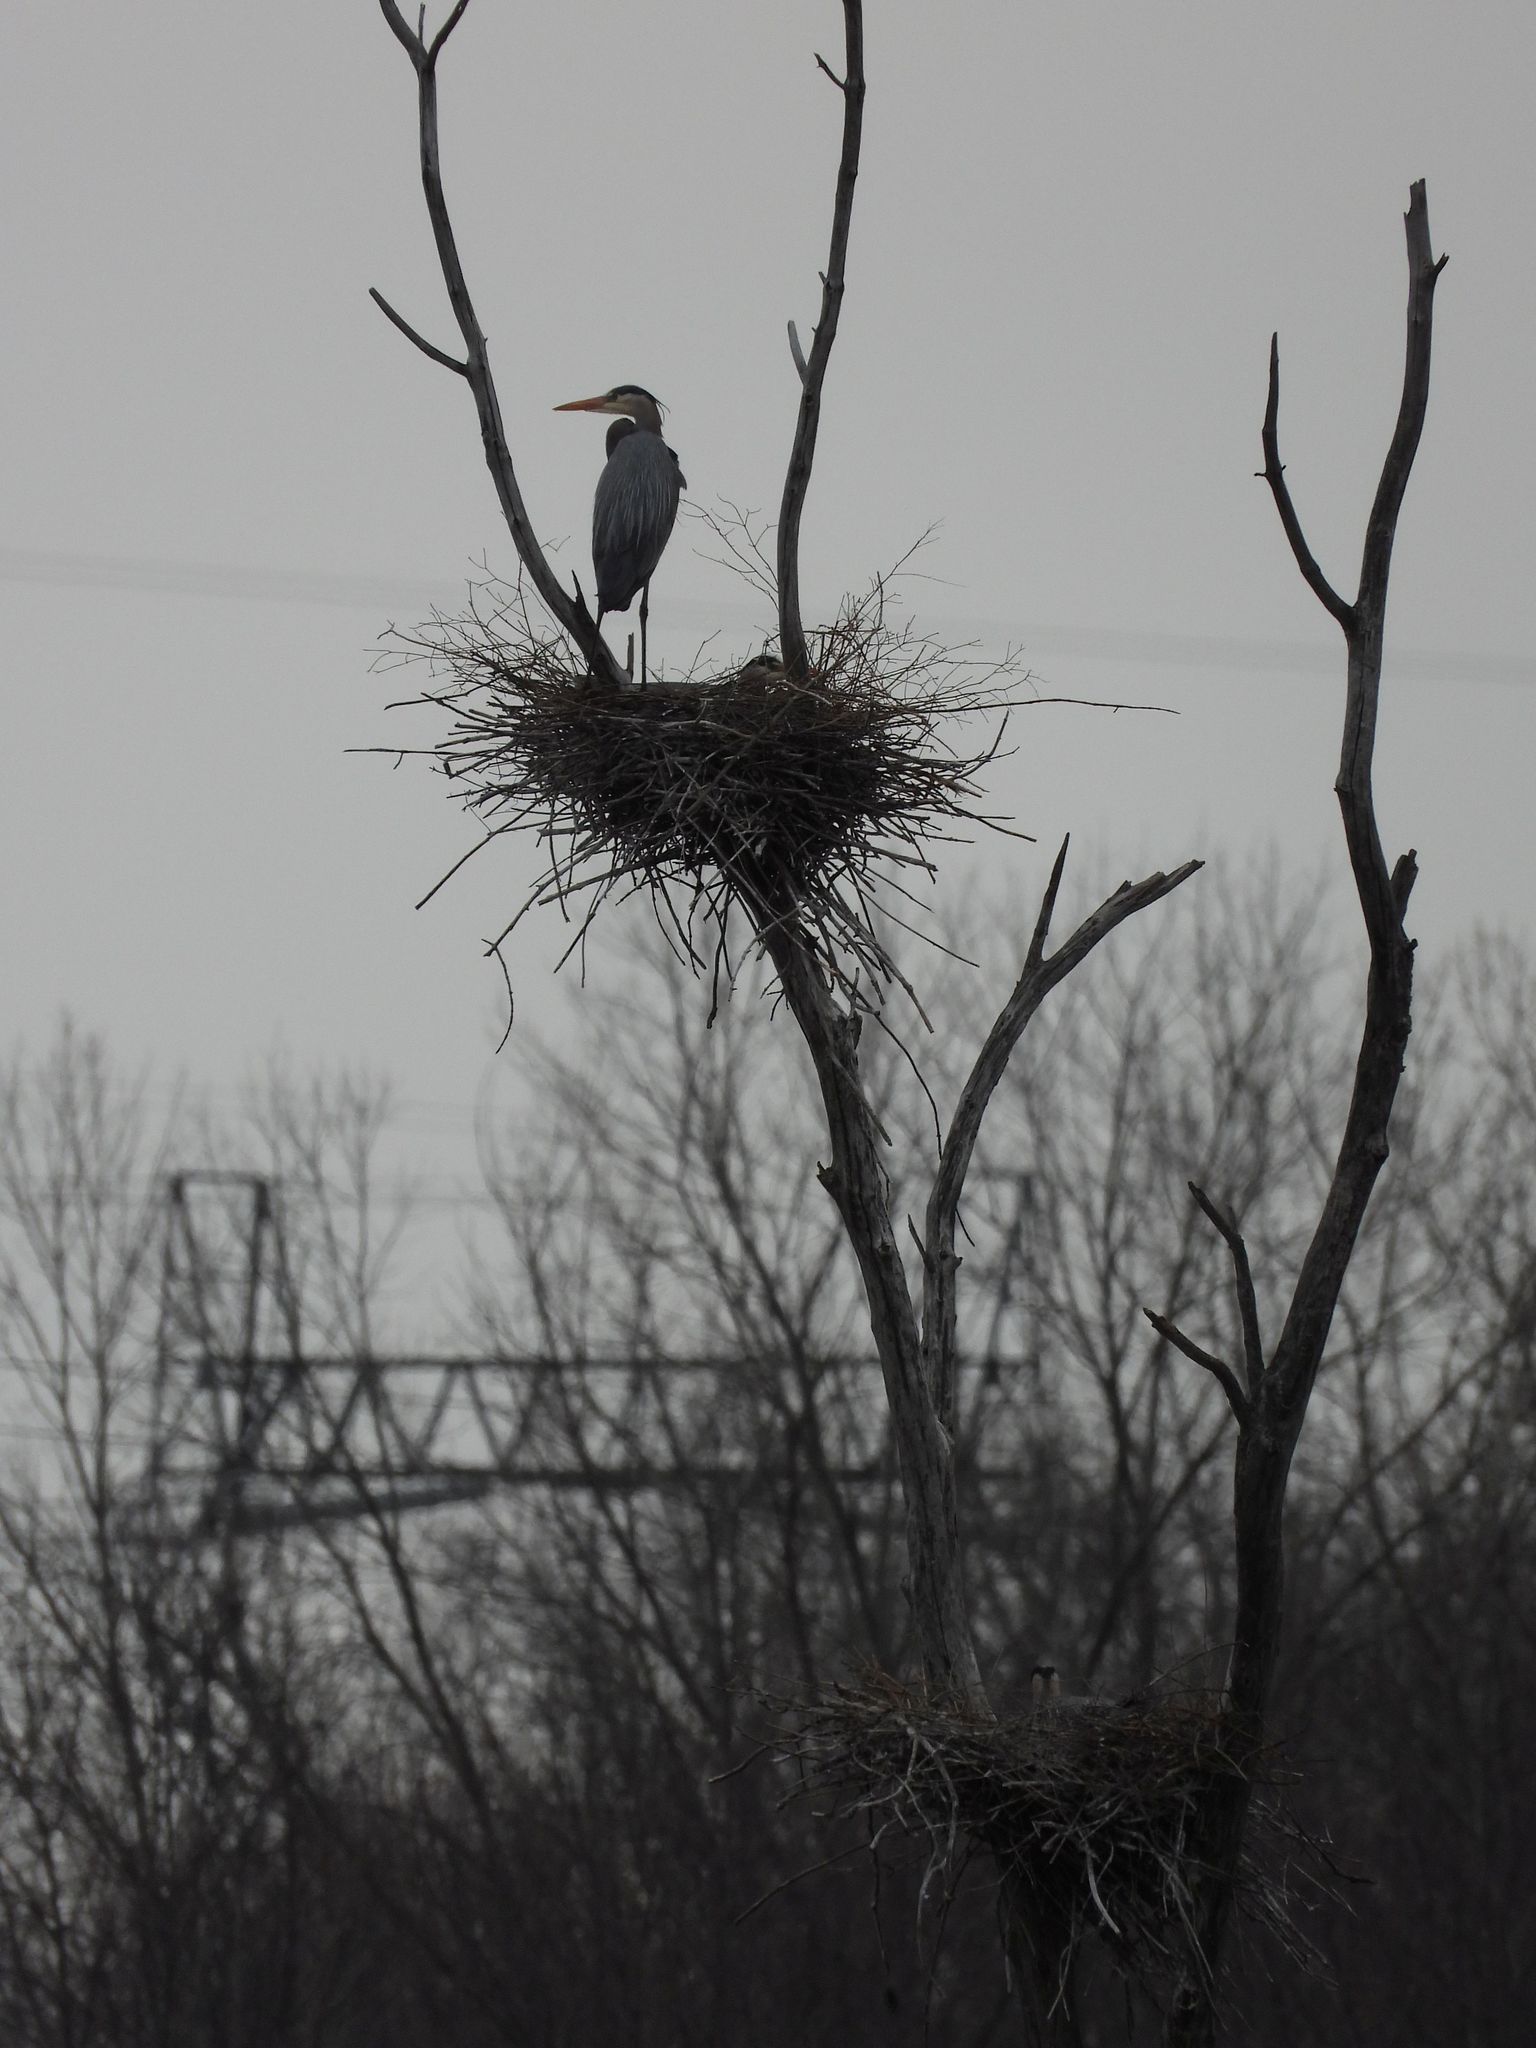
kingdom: Animalia
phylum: Chordata
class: Aves
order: Pelecaniformes
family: Ardeidae
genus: Ardea
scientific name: Ardea herodias
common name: Great blue heron
